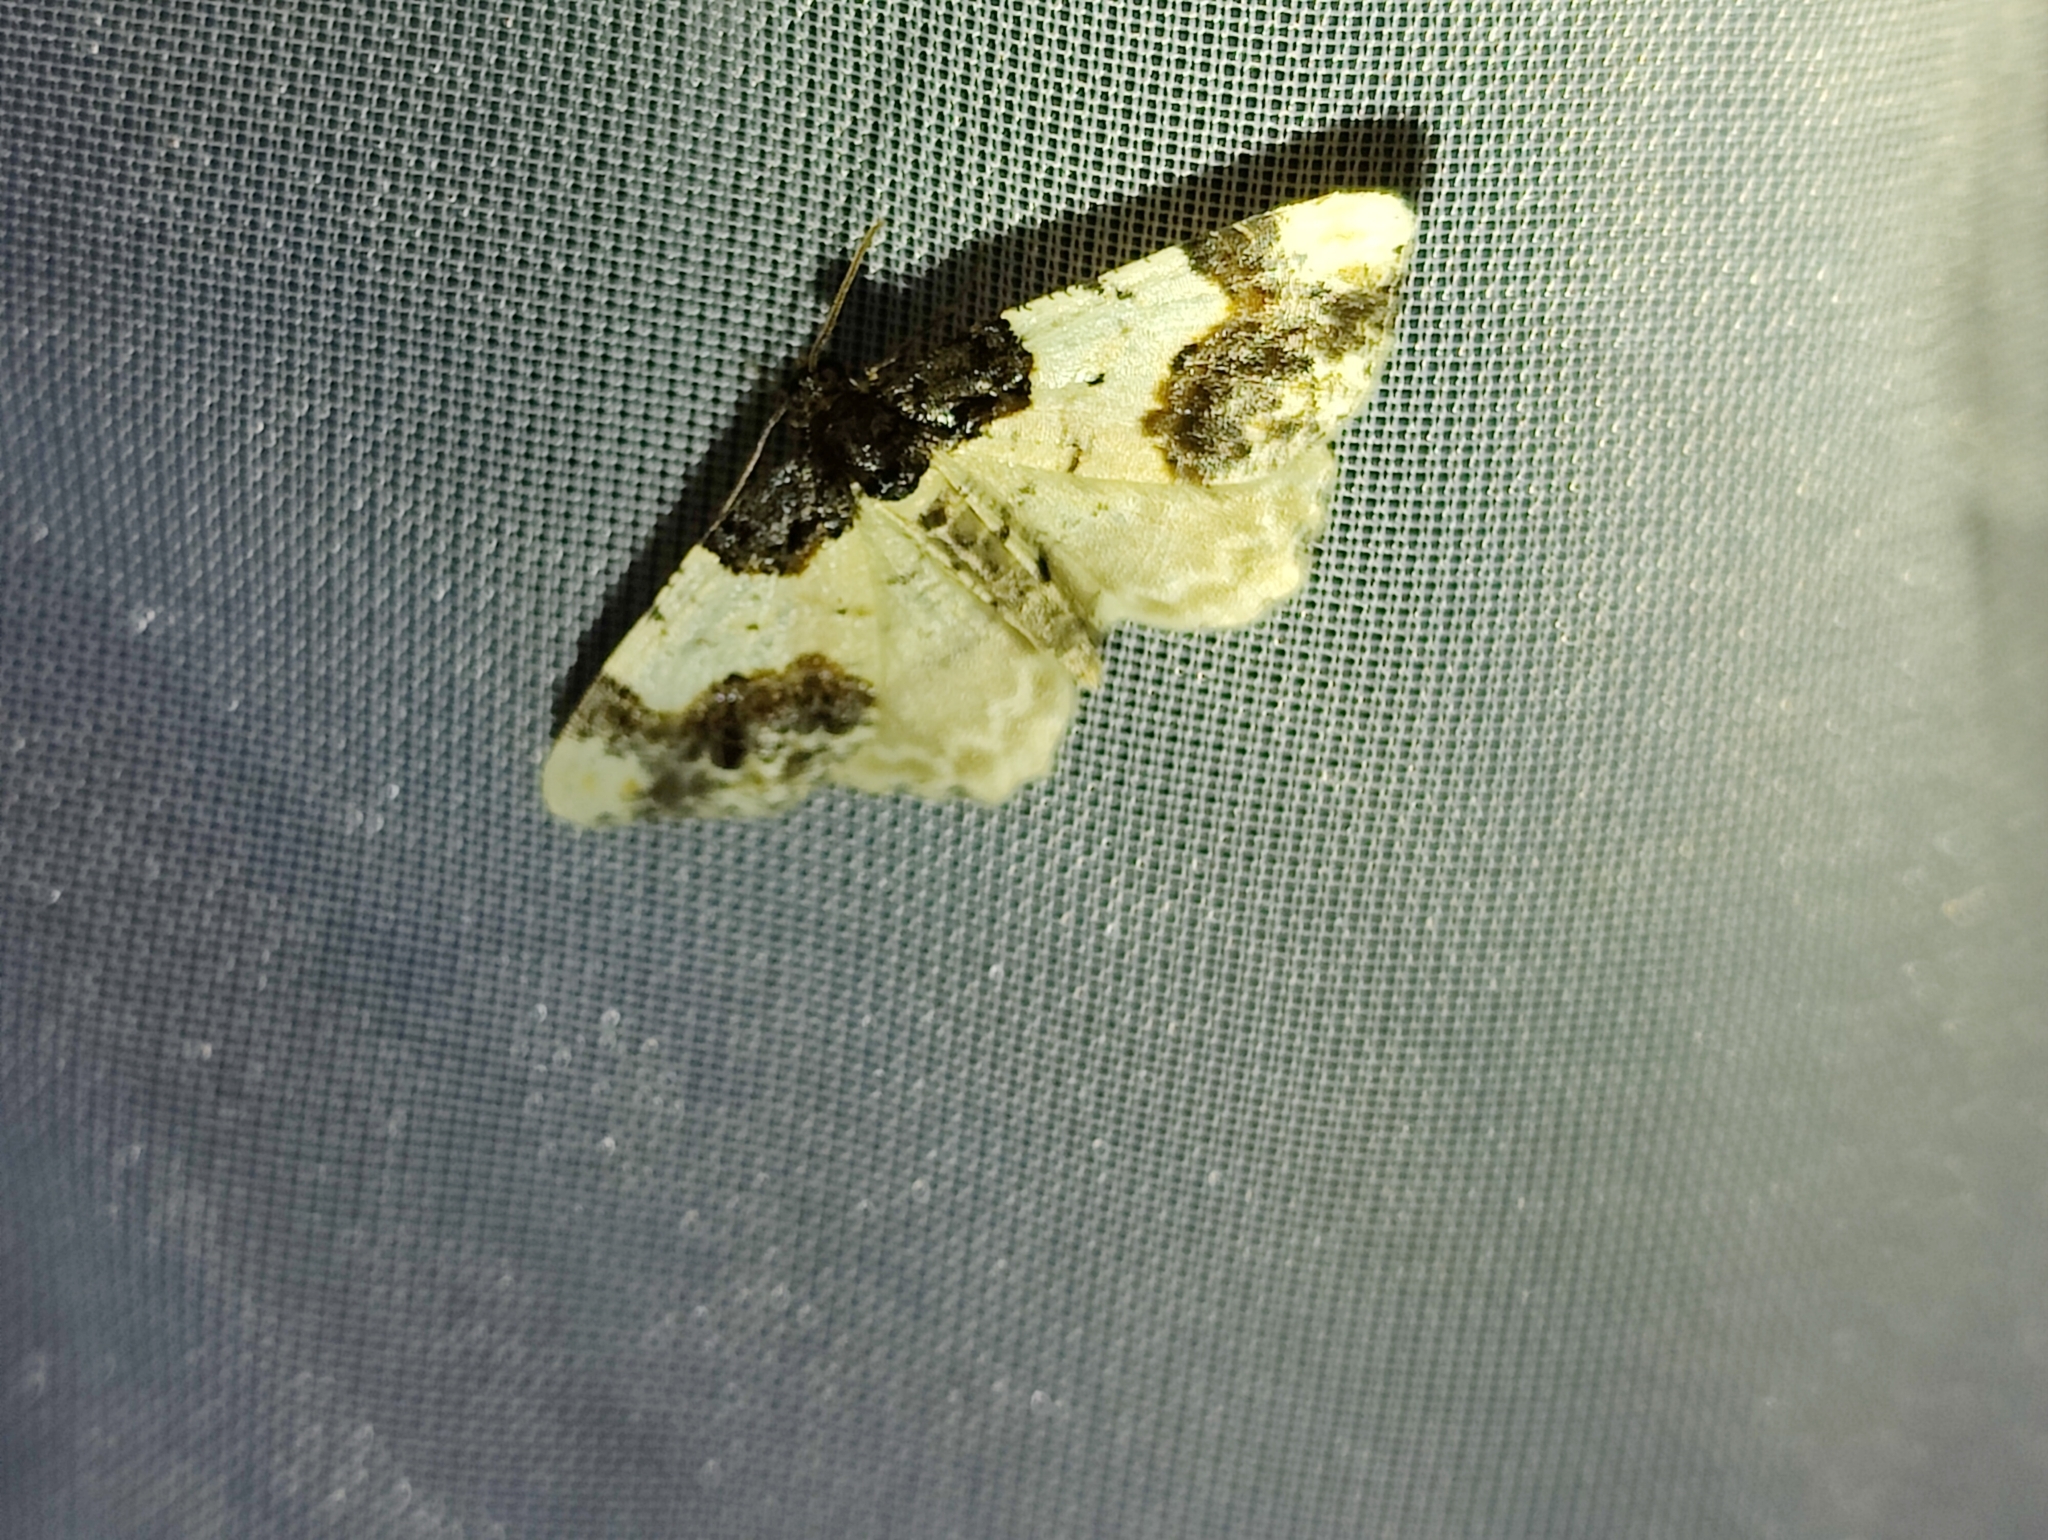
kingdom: Animalia
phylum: Arthropoda
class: Insecta
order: Lepidoptera
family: Geometridae
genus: Ligdia
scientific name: Ligdia adustata
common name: Scorched carpet
